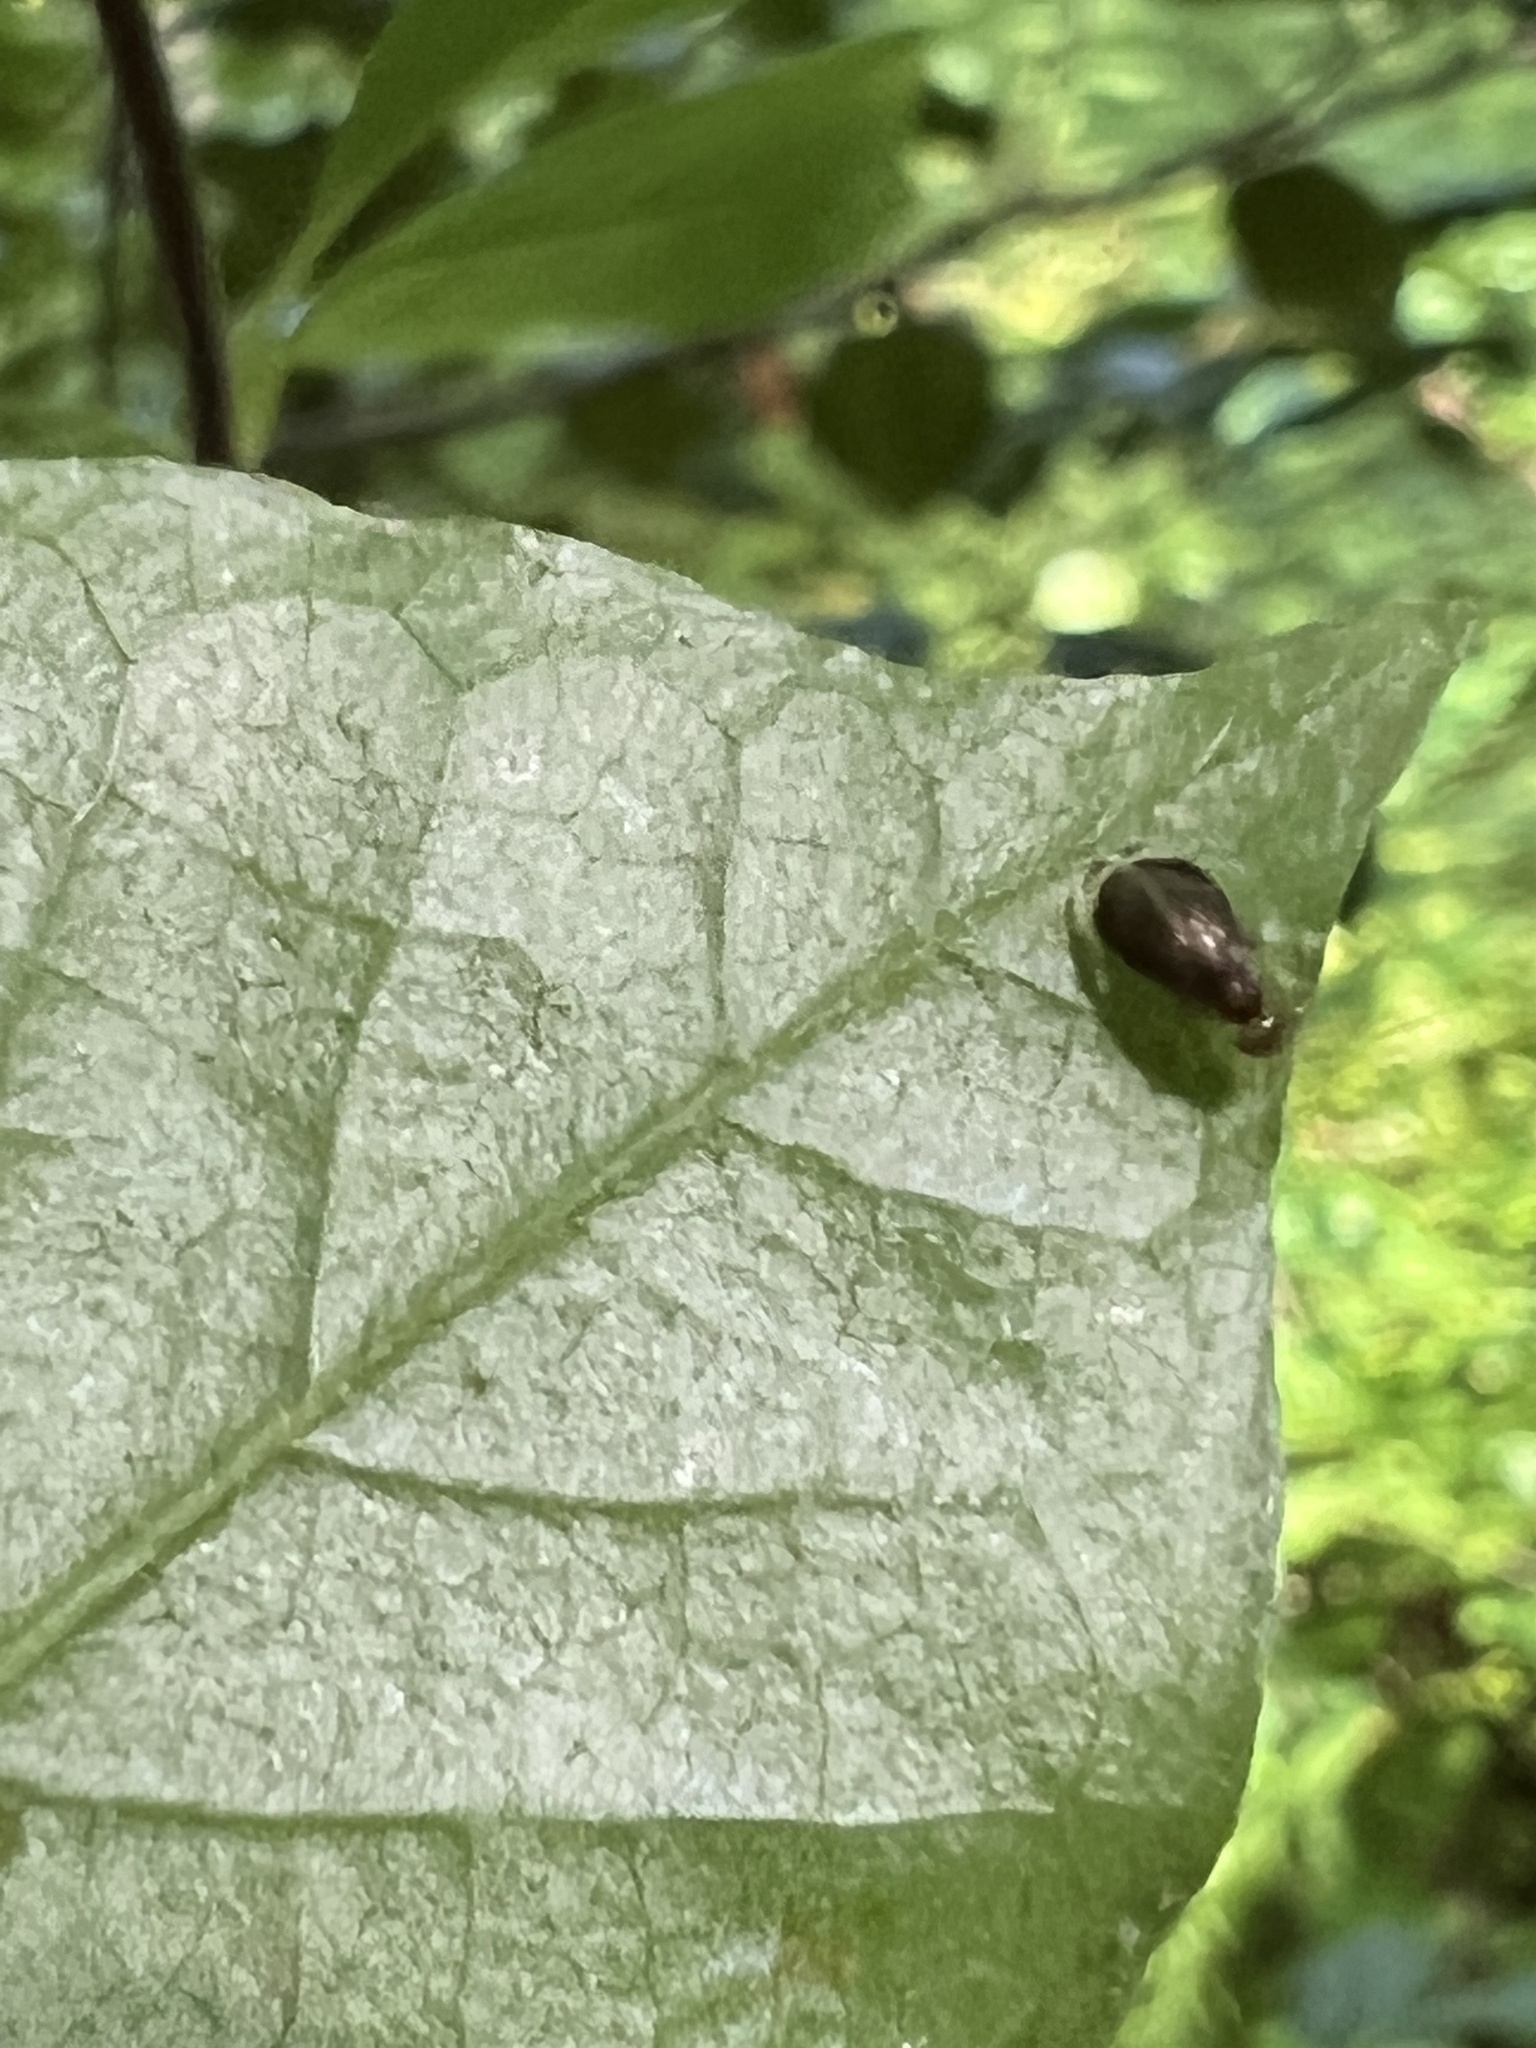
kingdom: Animalia
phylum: Arthropoda
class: Insecta
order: Psocodea
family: Amphipsocidae
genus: Polypsocus
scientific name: Polypsocus corruptus
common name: Corrupt barklouse
